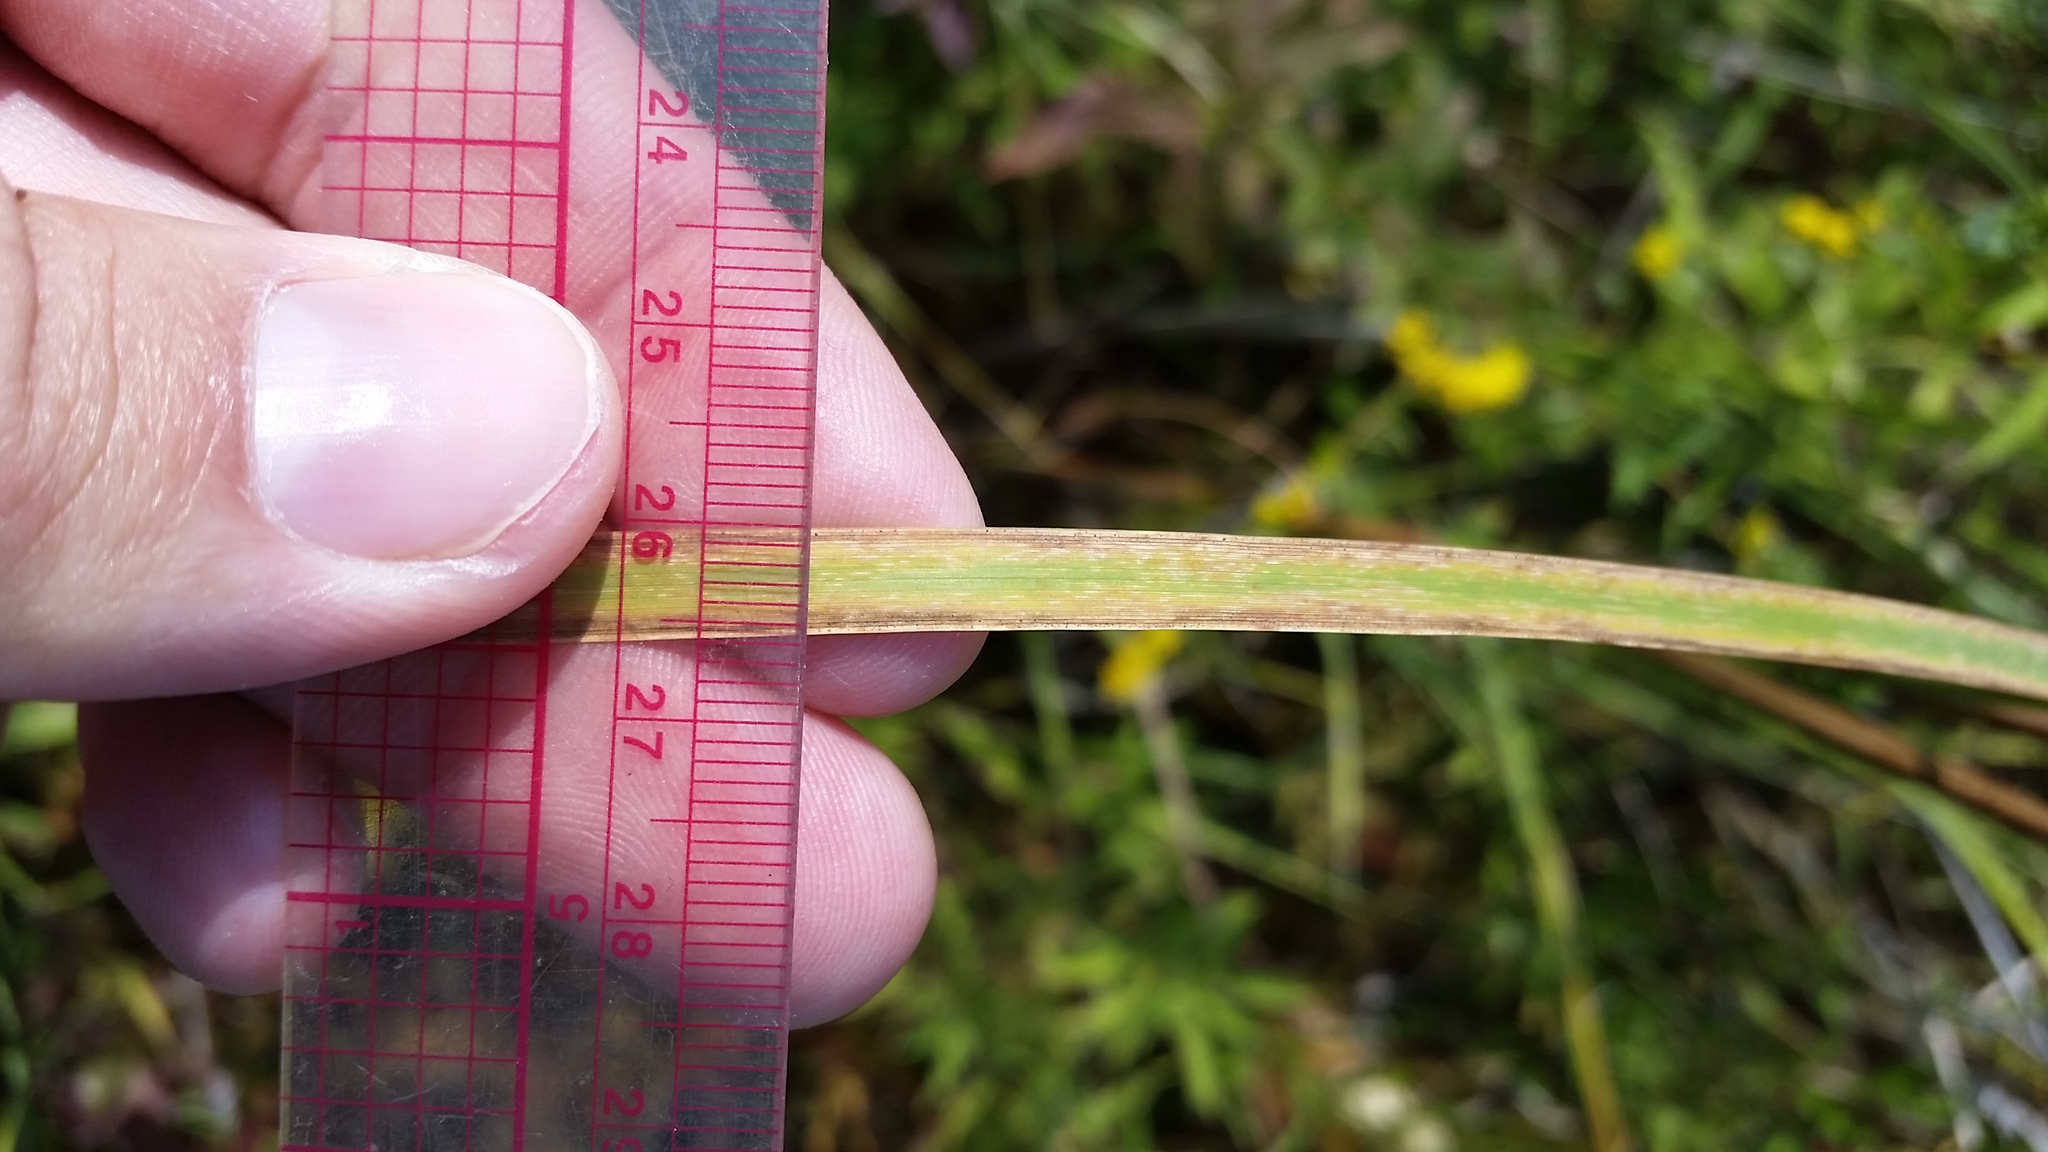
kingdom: Plantae
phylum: Tracheophyta
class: Liliopsida
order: Poales
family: Typhaceae
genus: Typha
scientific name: Typha angustifolia
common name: Lesser bulrush
